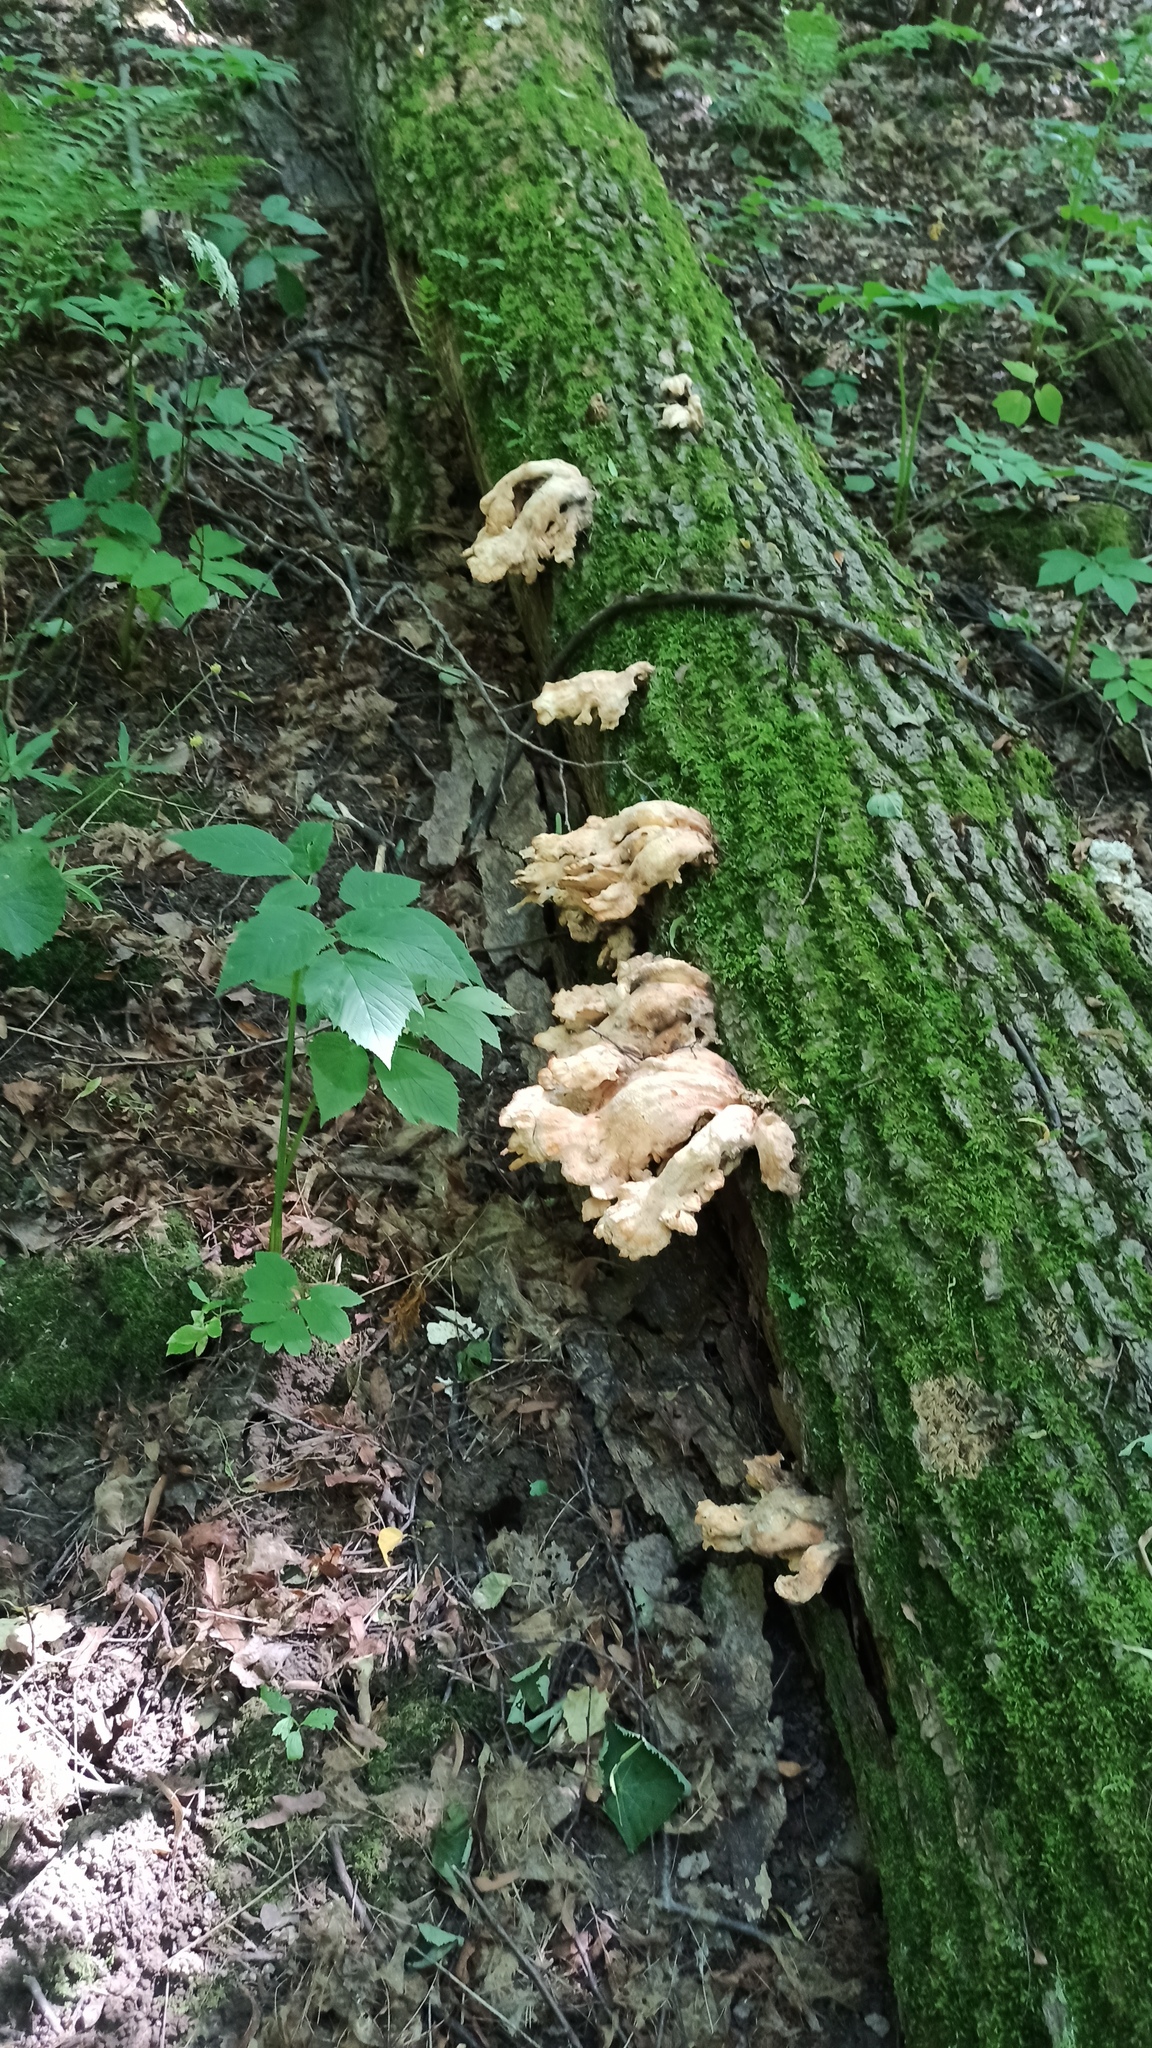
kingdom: Fungi
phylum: Basidiomycota
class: Agaricomycetes
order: Polyporales
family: Laetiporaceae
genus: Laetiporus
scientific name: Laetiporus sulphureus
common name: Chicken of the woods
